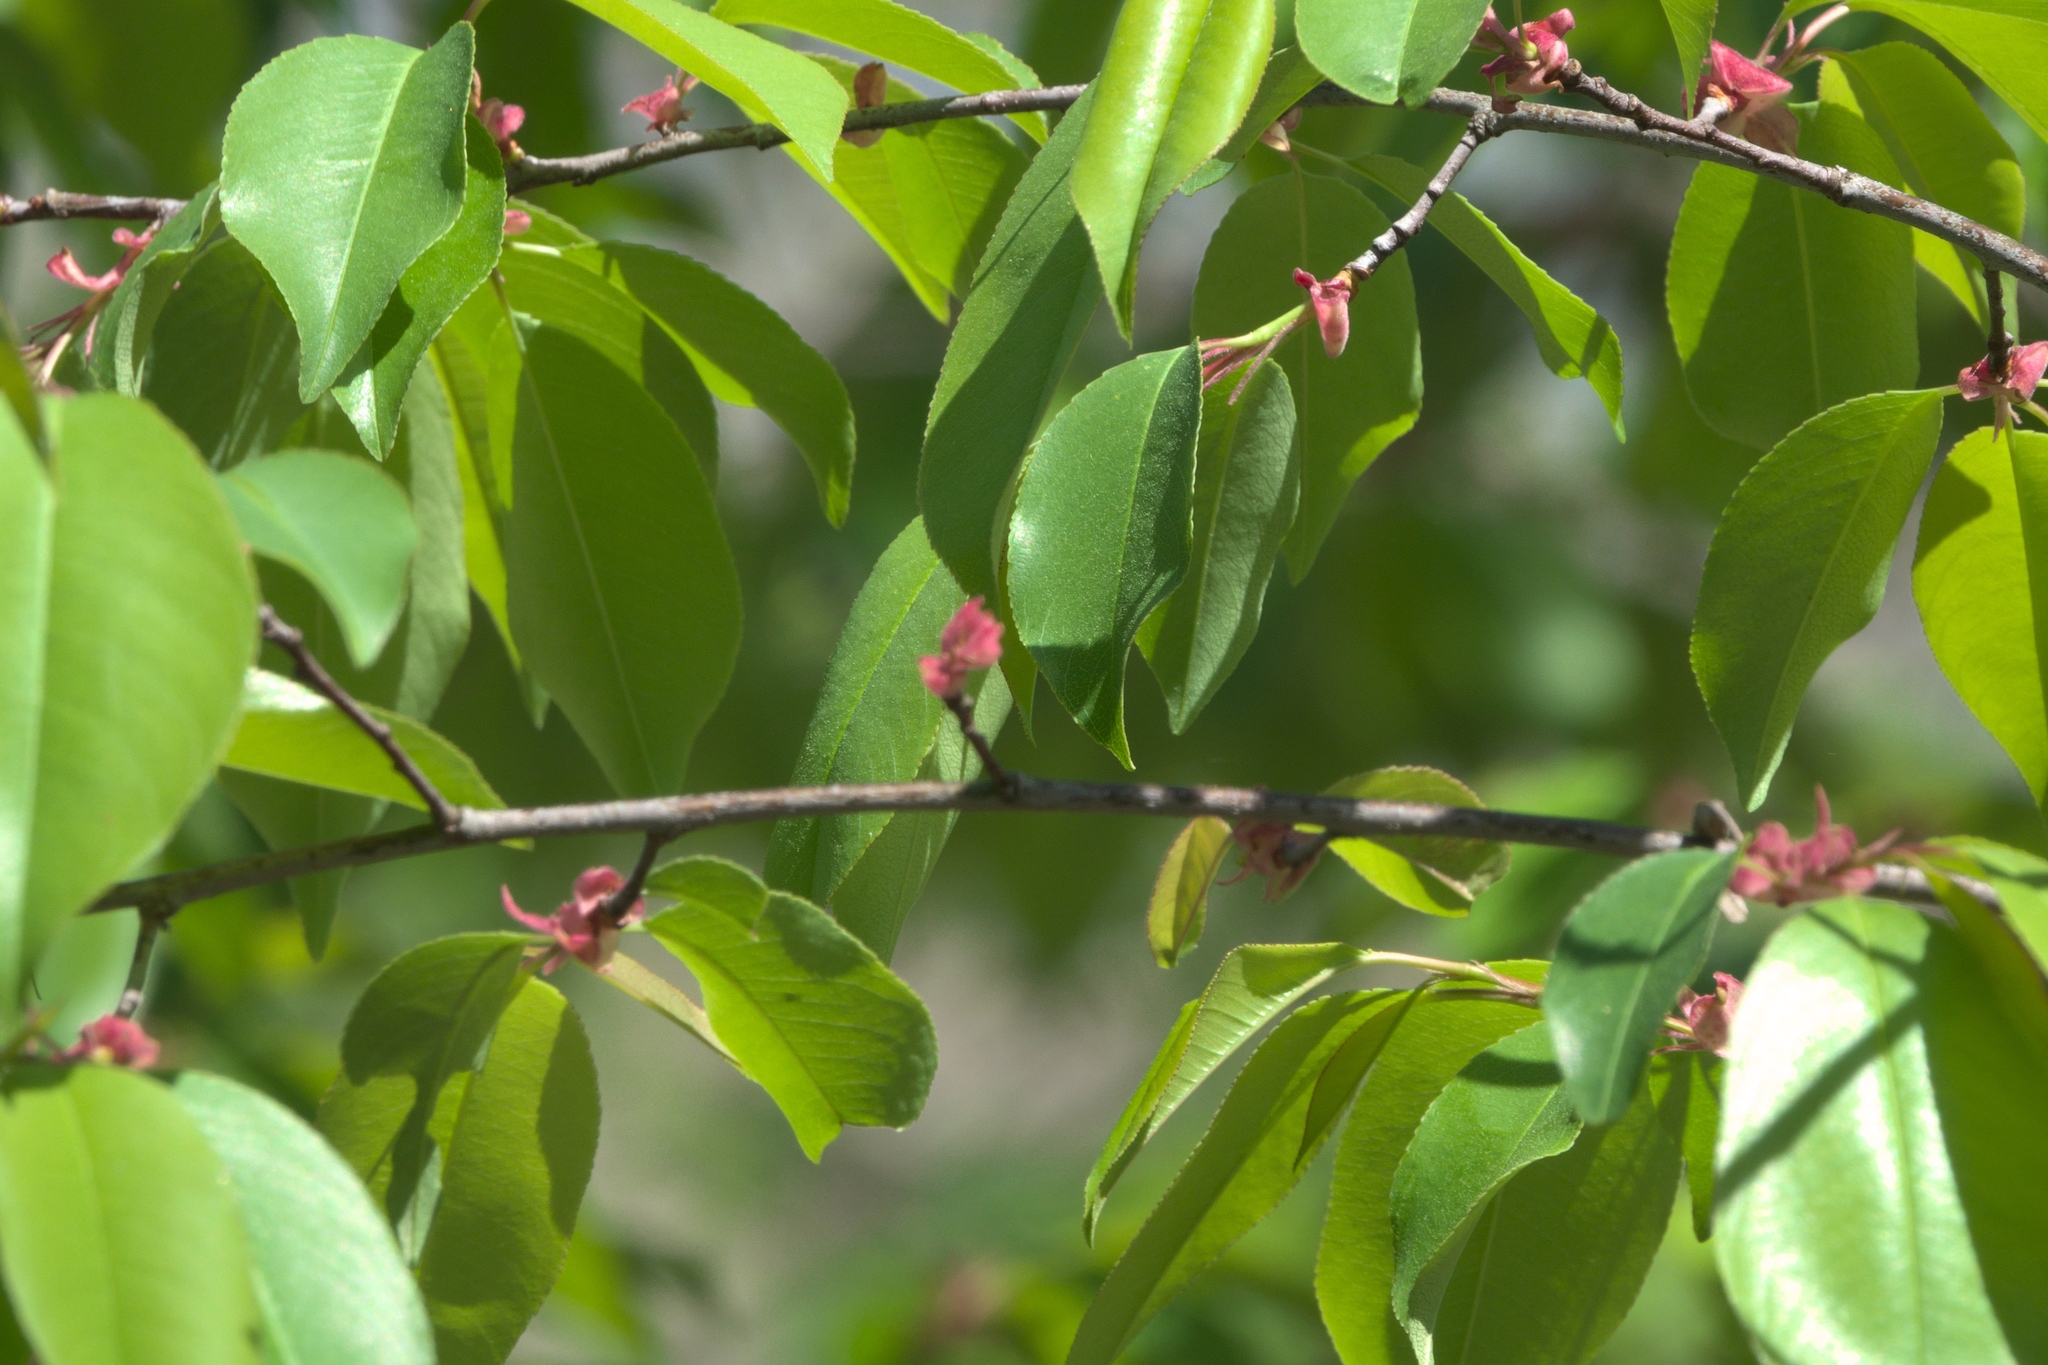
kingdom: Plantae
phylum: Tracheophyta
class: Magnoliopsida
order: Rosales
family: Rosaceae
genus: Prunus
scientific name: Prunus serotina
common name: Black cherry
